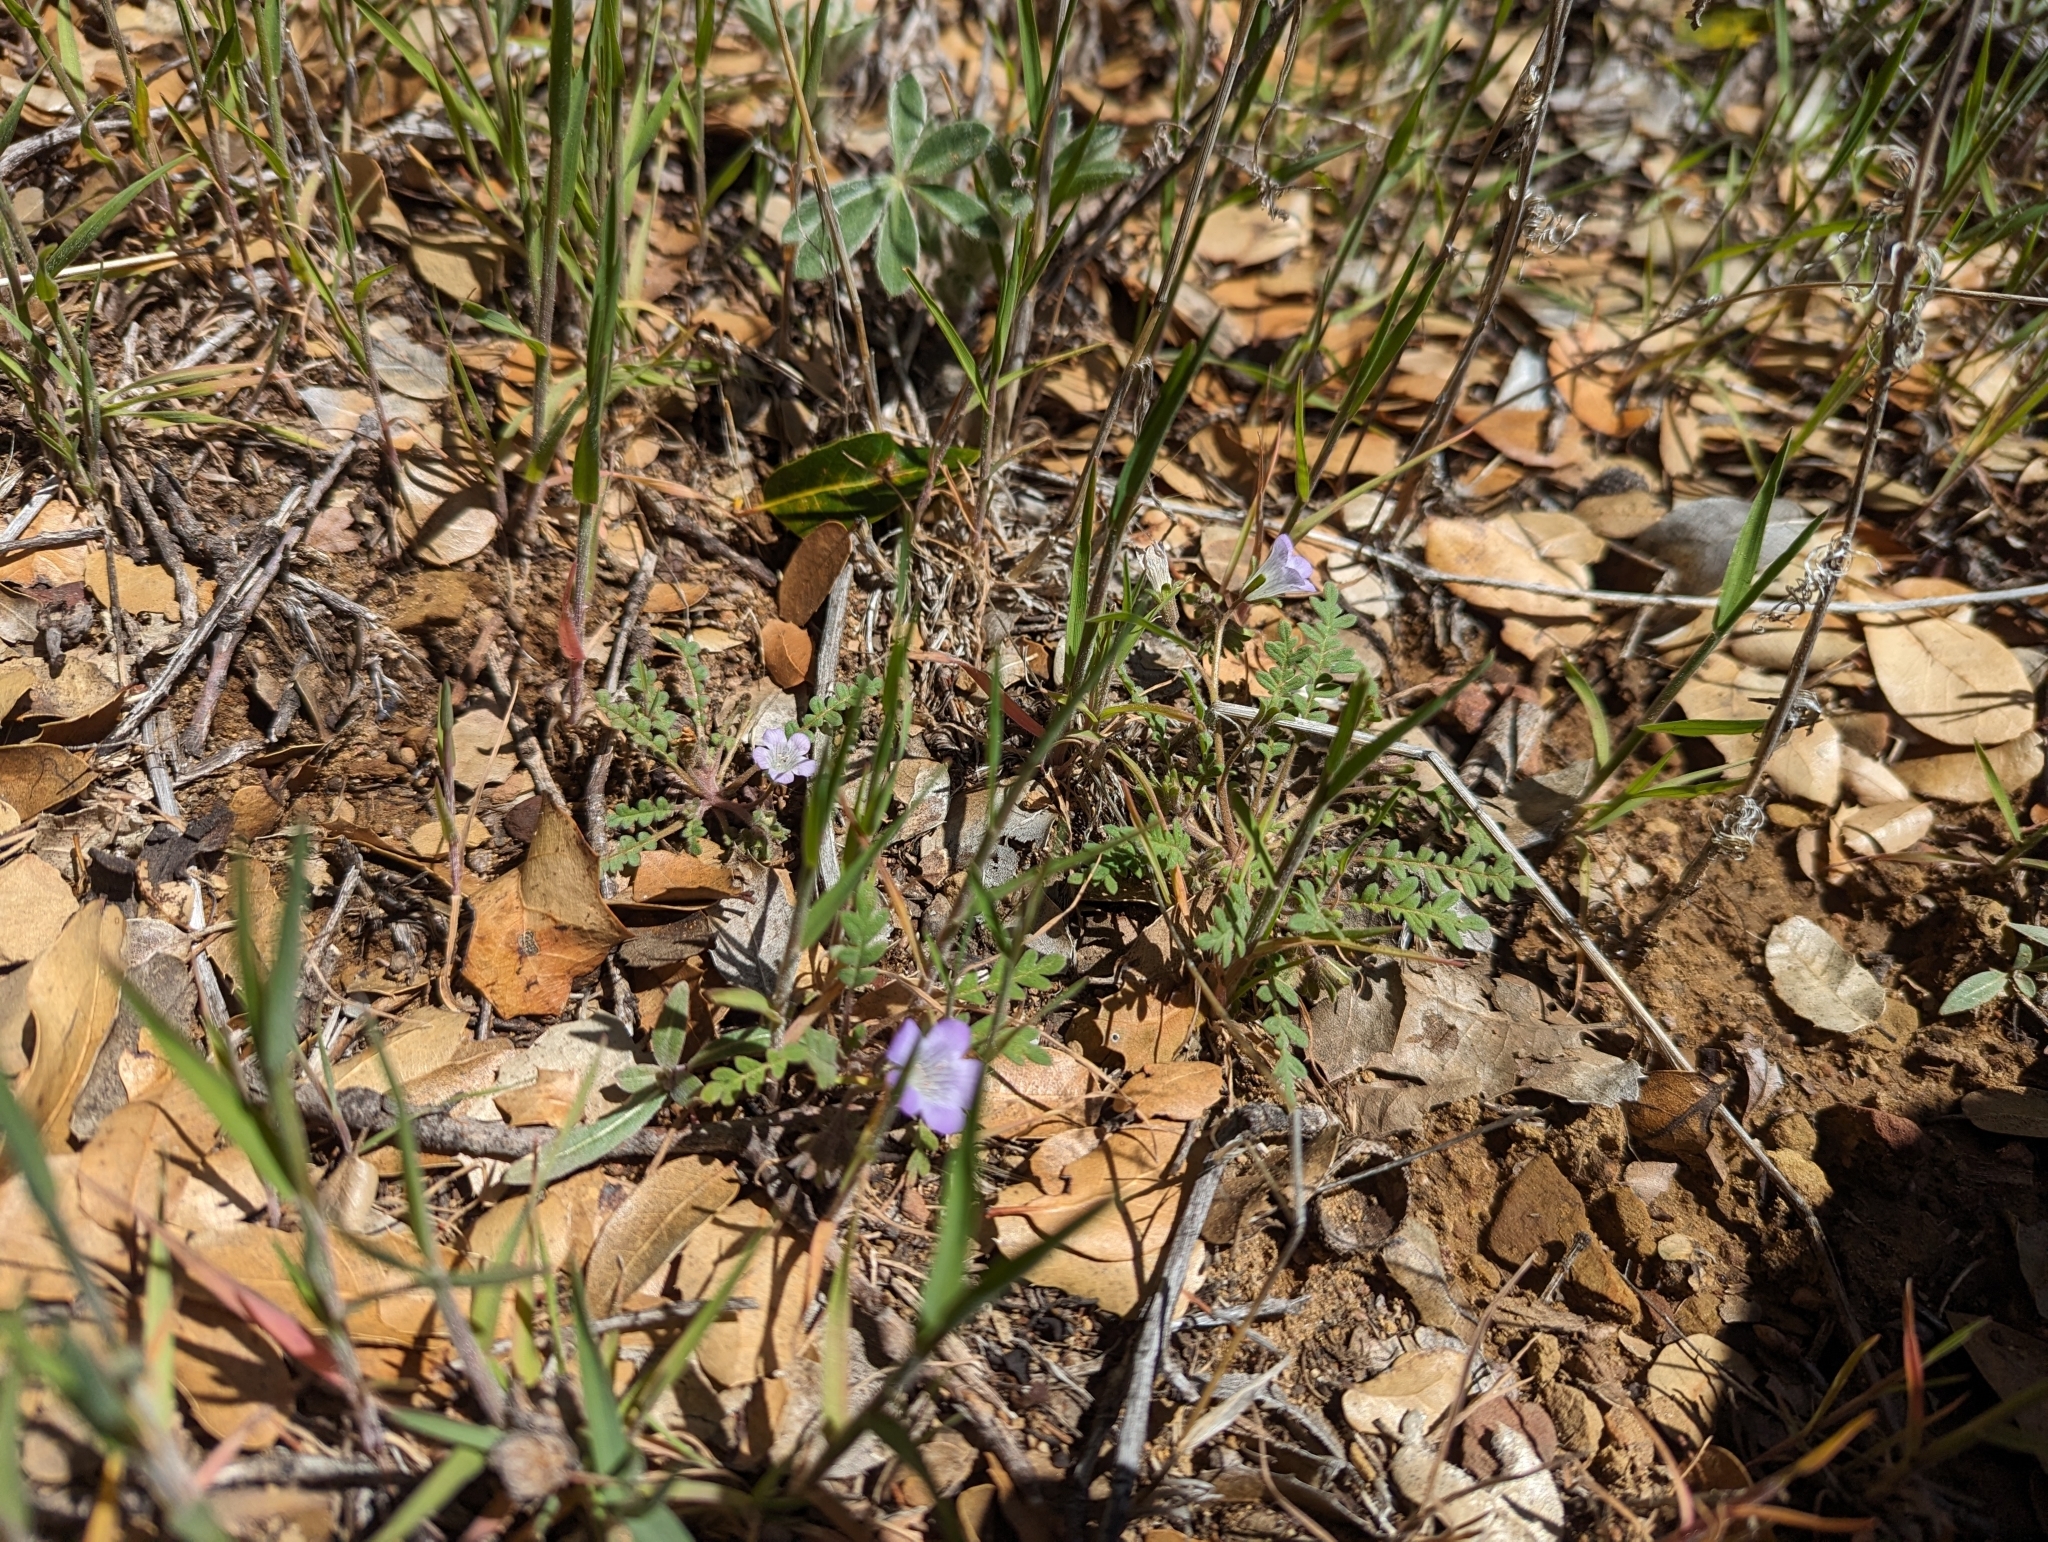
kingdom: Plantae
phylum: Tracheophyta
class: Magnoliopsida
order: Boraginales
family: Hydrophyllaceae
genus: Phacelia
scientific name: Phacelia douglasii
